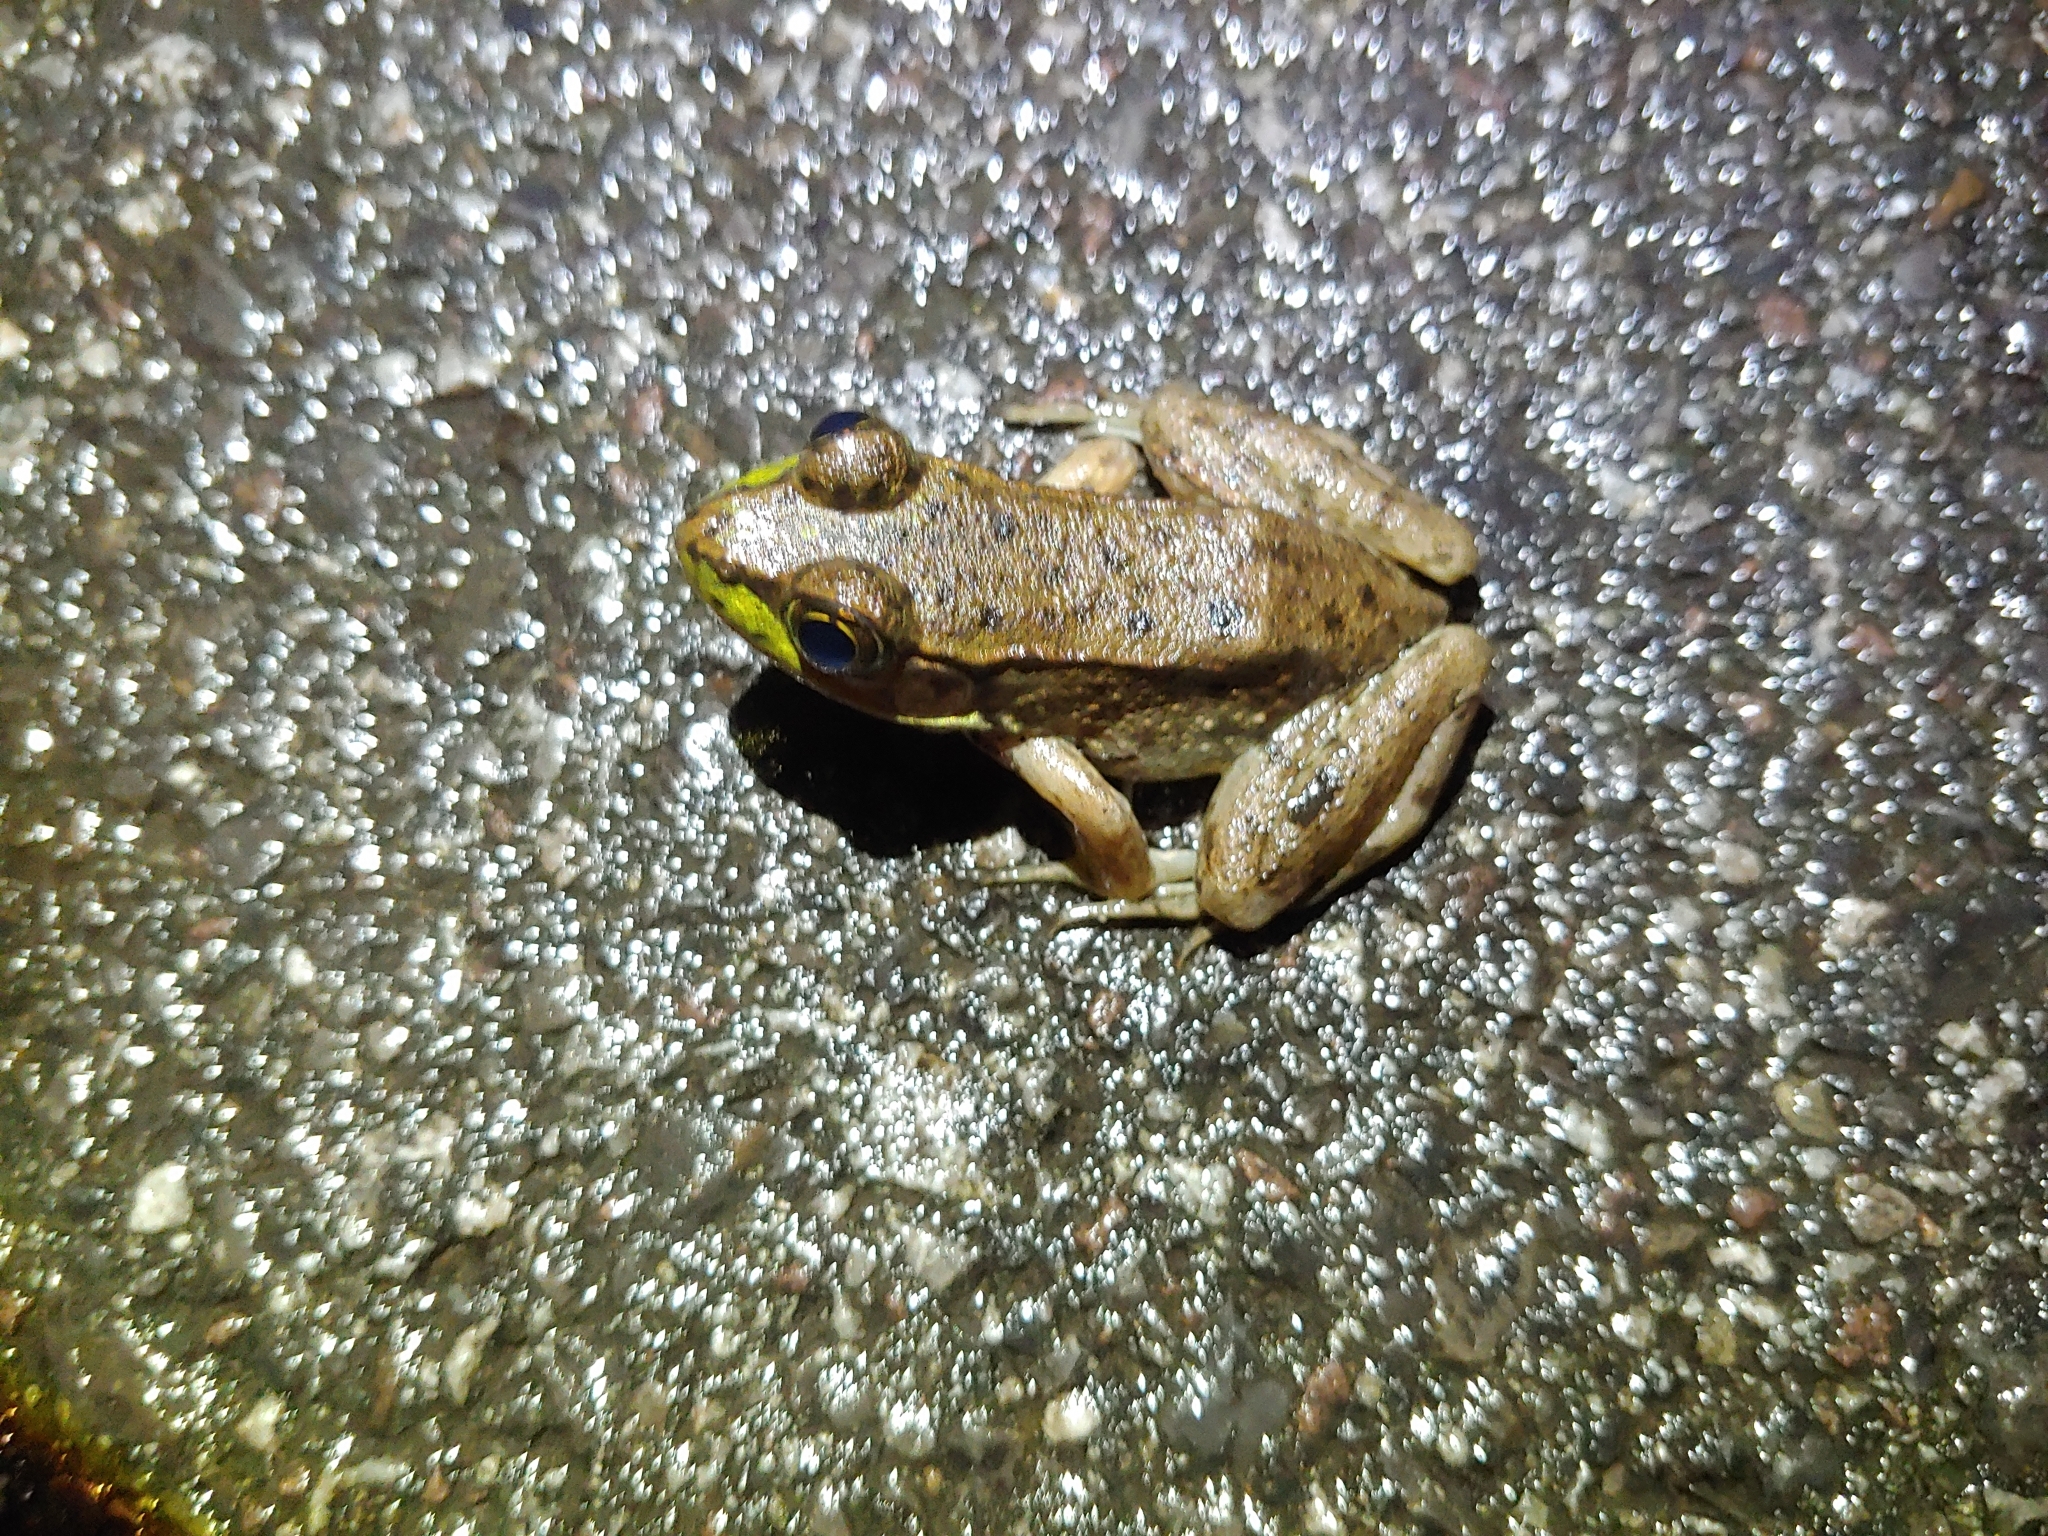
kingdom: Animalia
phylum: Chordata
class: Amphibia
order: Anura
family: Ranidae
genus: Lithobates
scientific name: Lithobates clamitans
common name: Green frog
